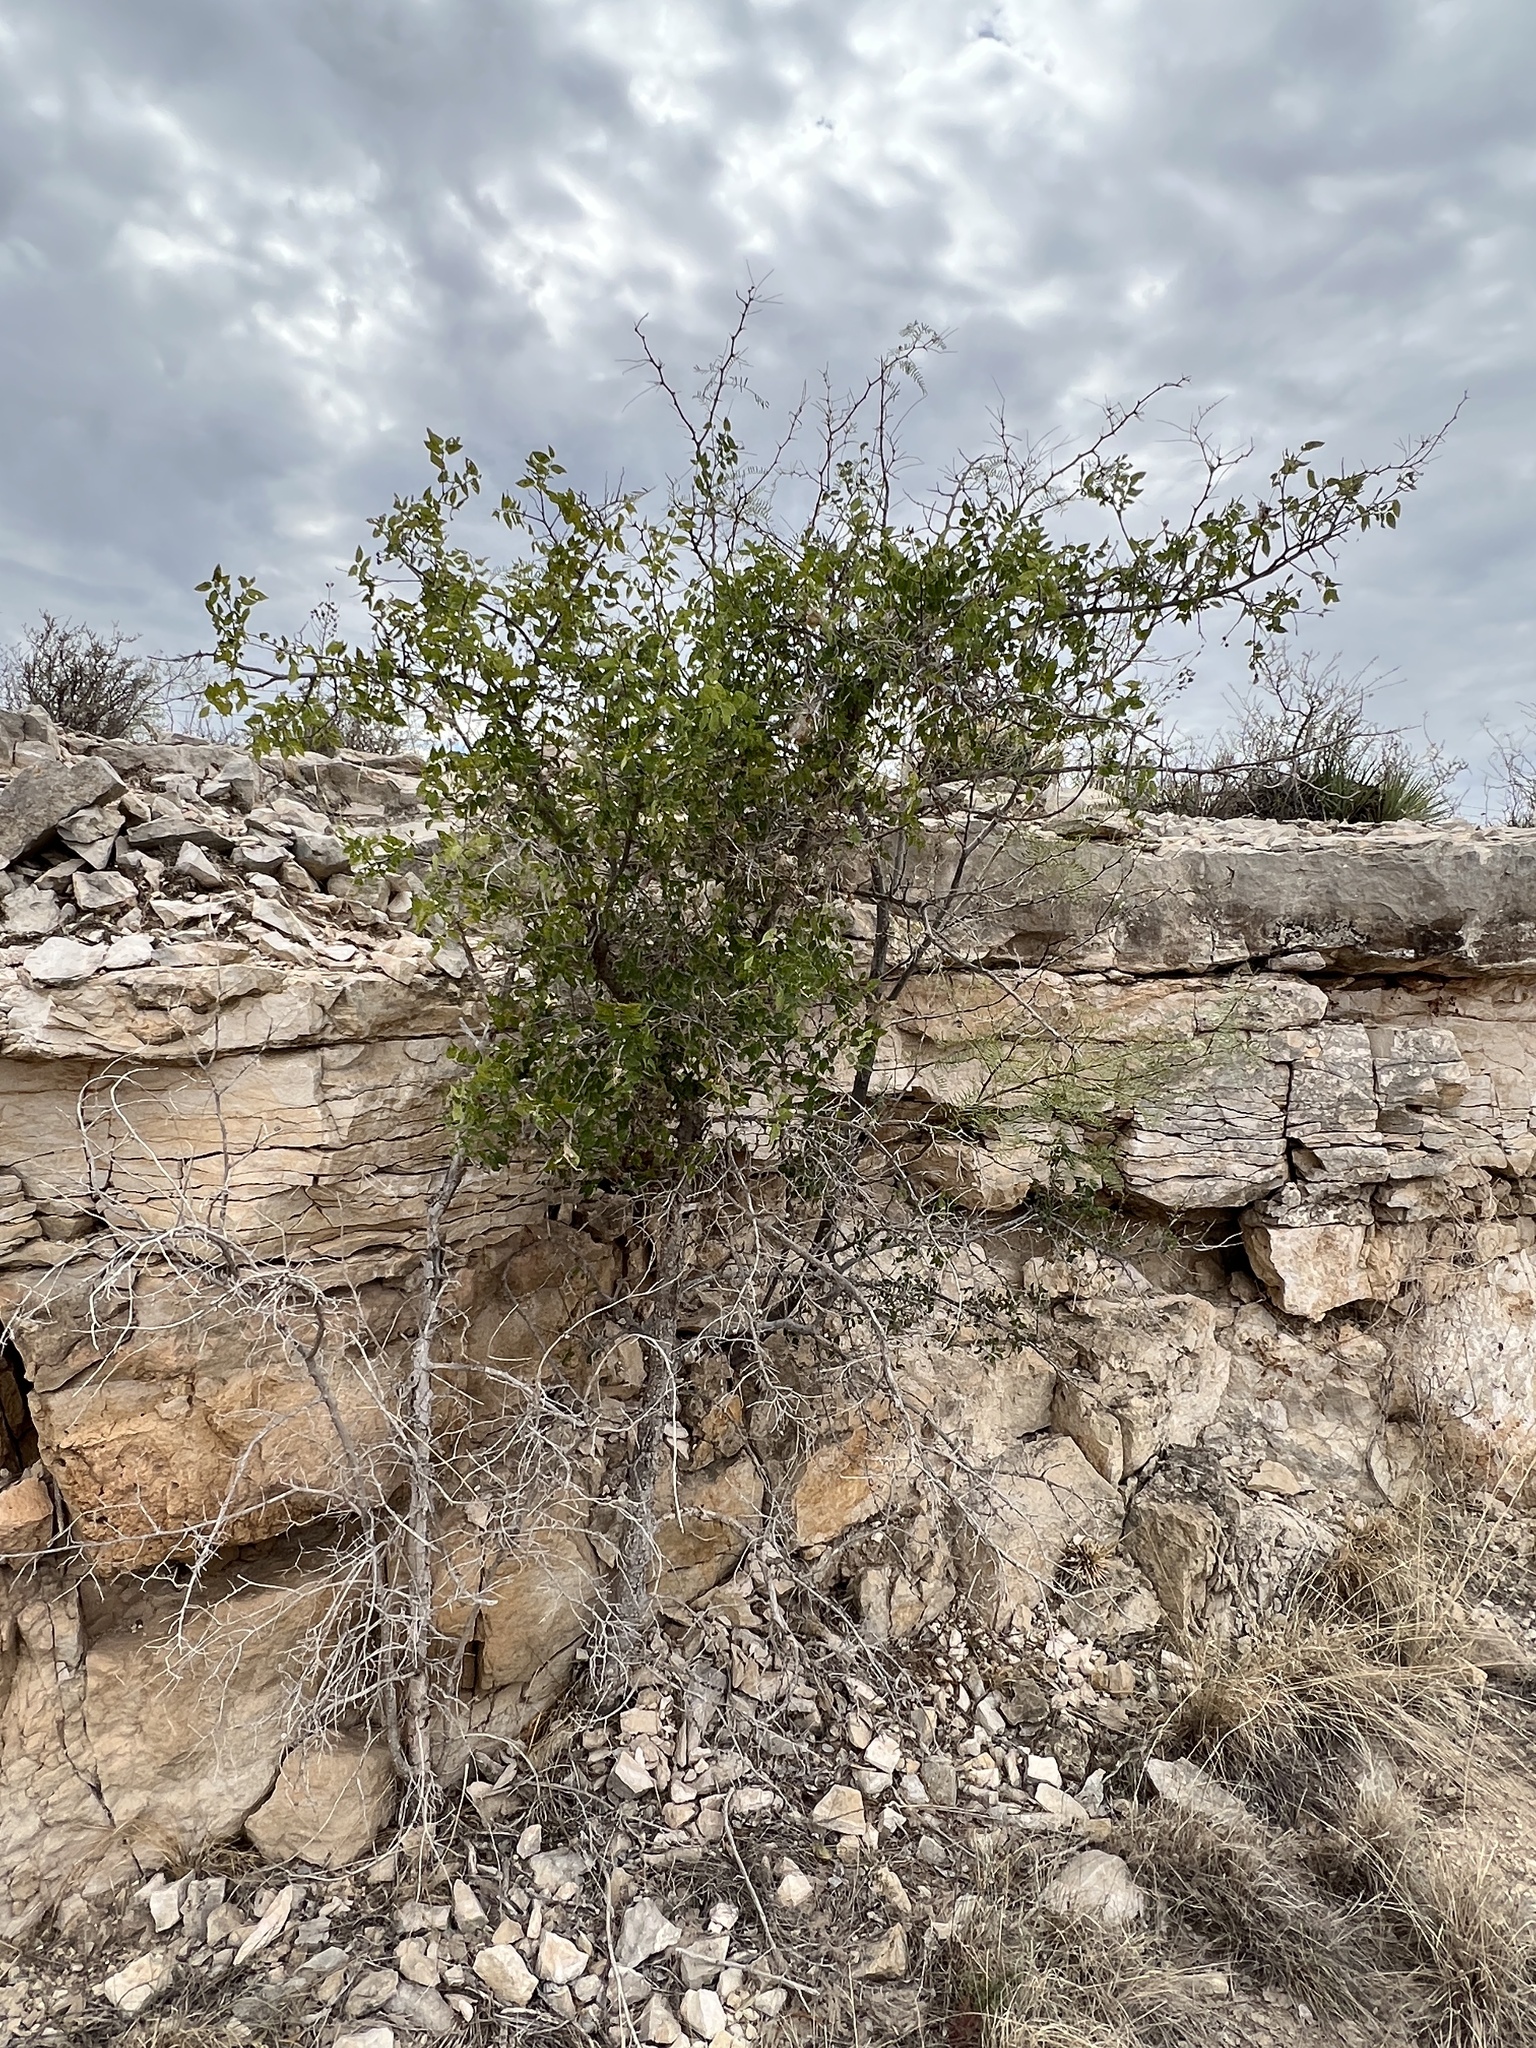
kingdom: Plantae
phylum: Tracheophyta
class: Magnoliopsida
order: Rosales
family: Cannabaceae
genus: Celtis
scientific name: Celtis reticulata
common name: Netleaf hackberry
